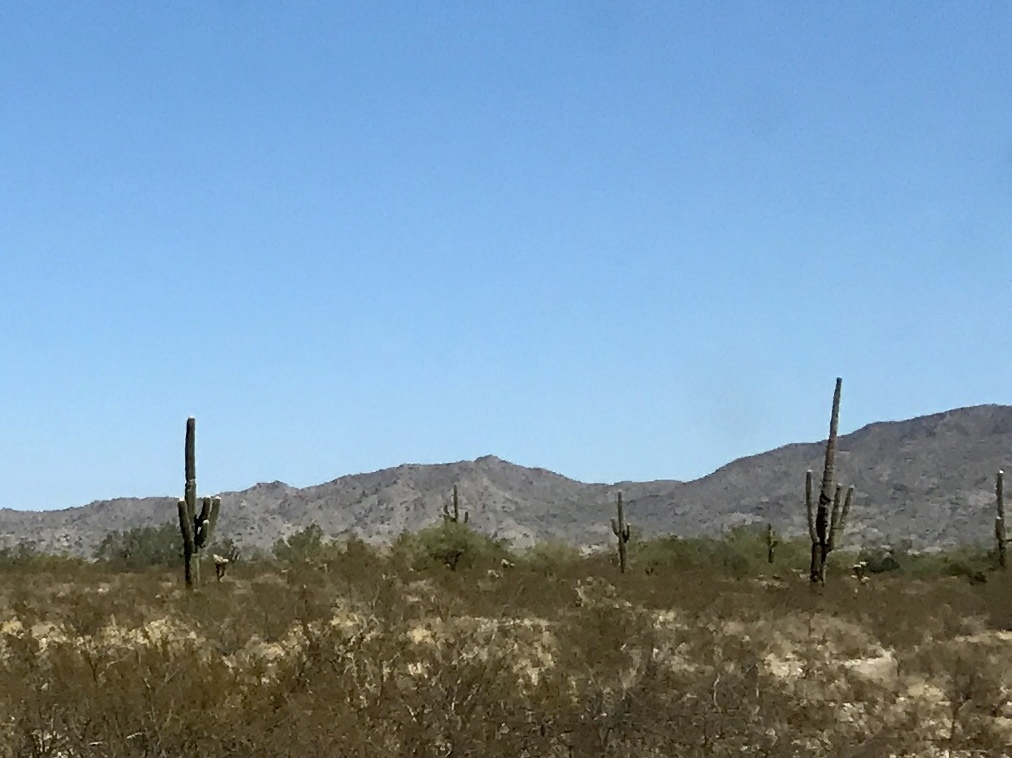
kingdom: Plantae
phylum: Tracheophyta
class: Magnoliopsida
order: Caryophyllales
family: Cactaceae
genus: Carnegiea
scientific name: Carnegiea gigantea
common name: Saguaro
